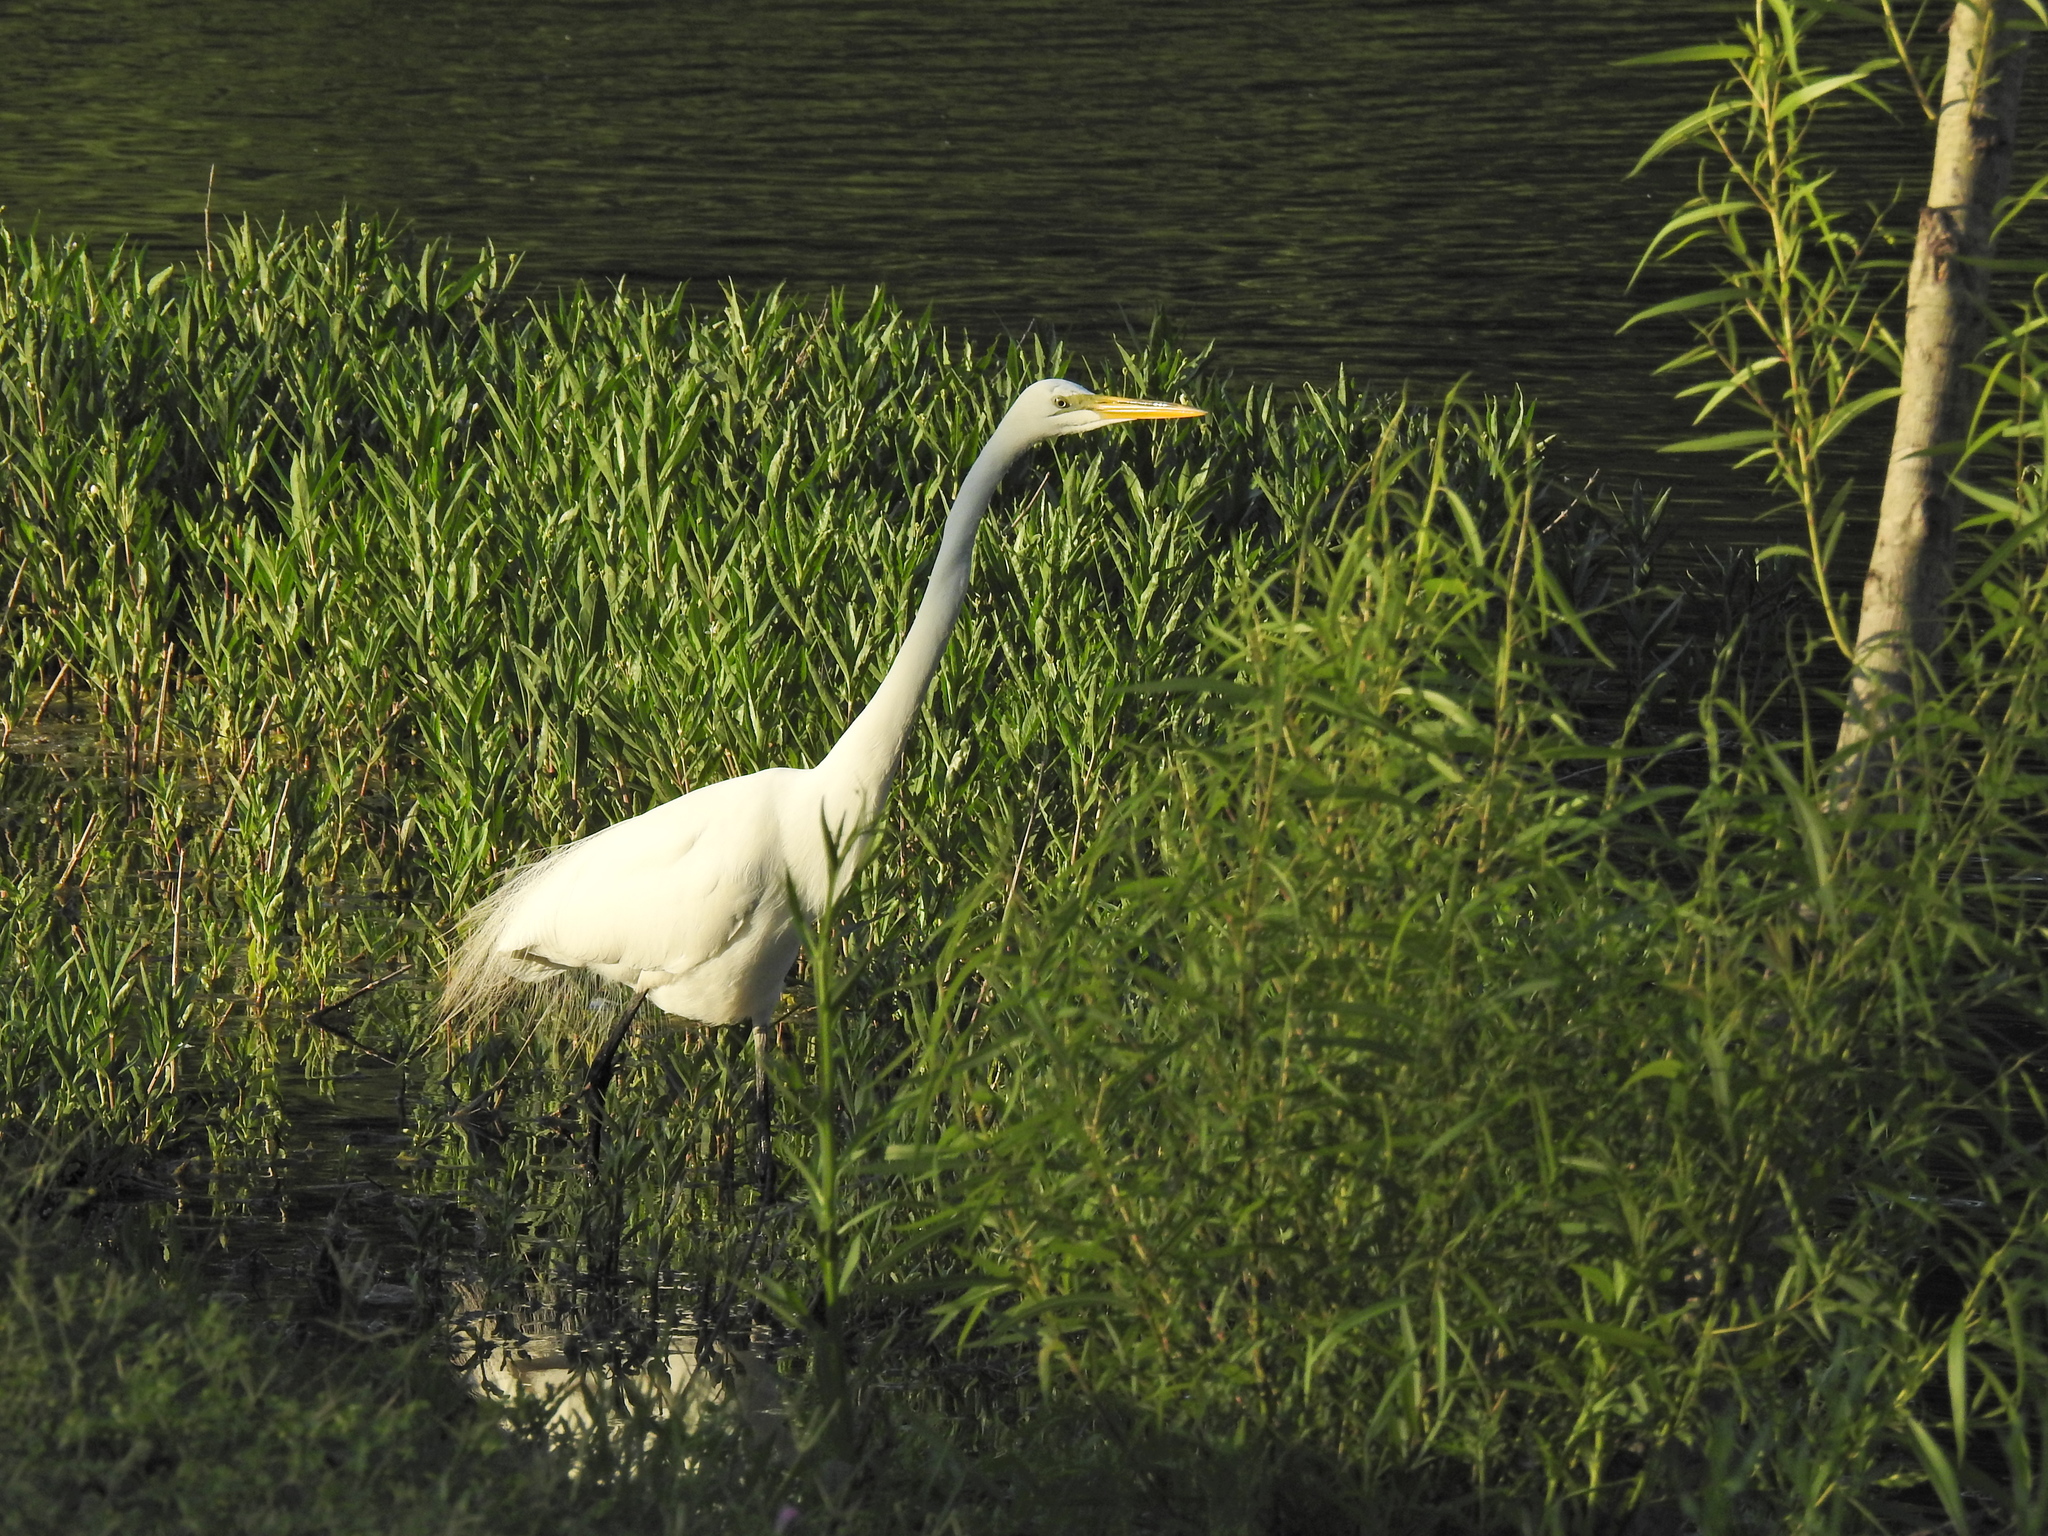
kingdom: Animalia
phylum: Chordata
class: Aves
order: Pelecaniformes
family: Ardeidae
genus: Ardea
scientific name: Ardea alba
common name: Great egret
